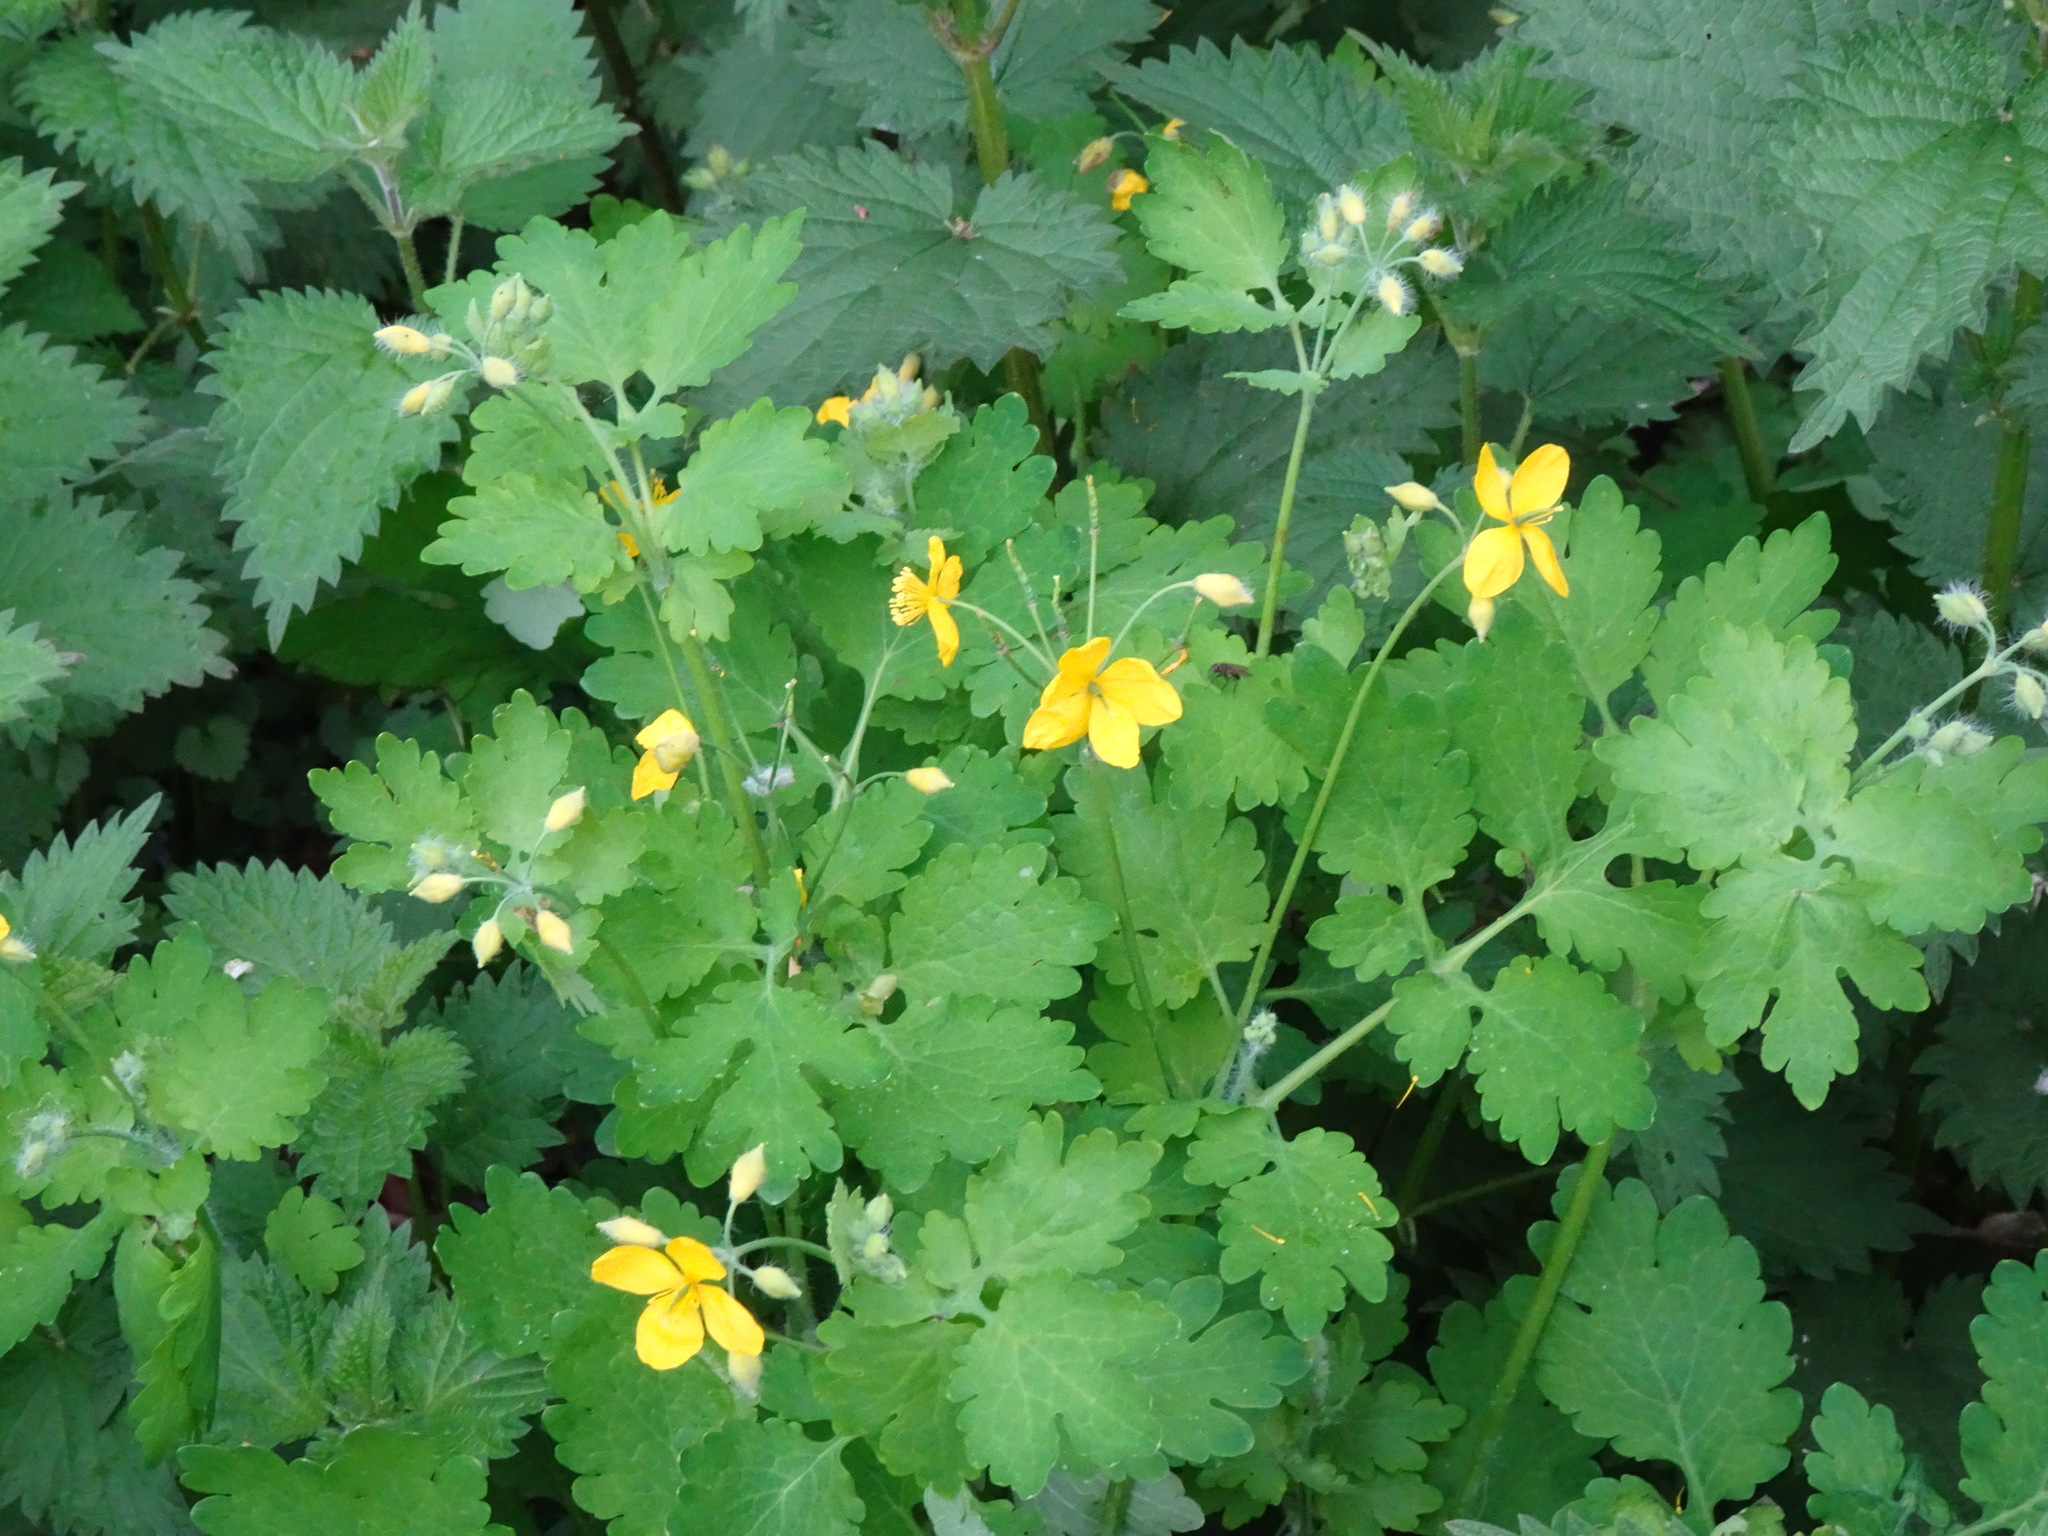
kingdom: Plantae
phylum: Tracheophyta
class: Magnoliopsida
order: Ranunculales
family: Papaveraceae
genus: Chelidonium
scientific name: Chelidonium majus
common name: Greater celandine
